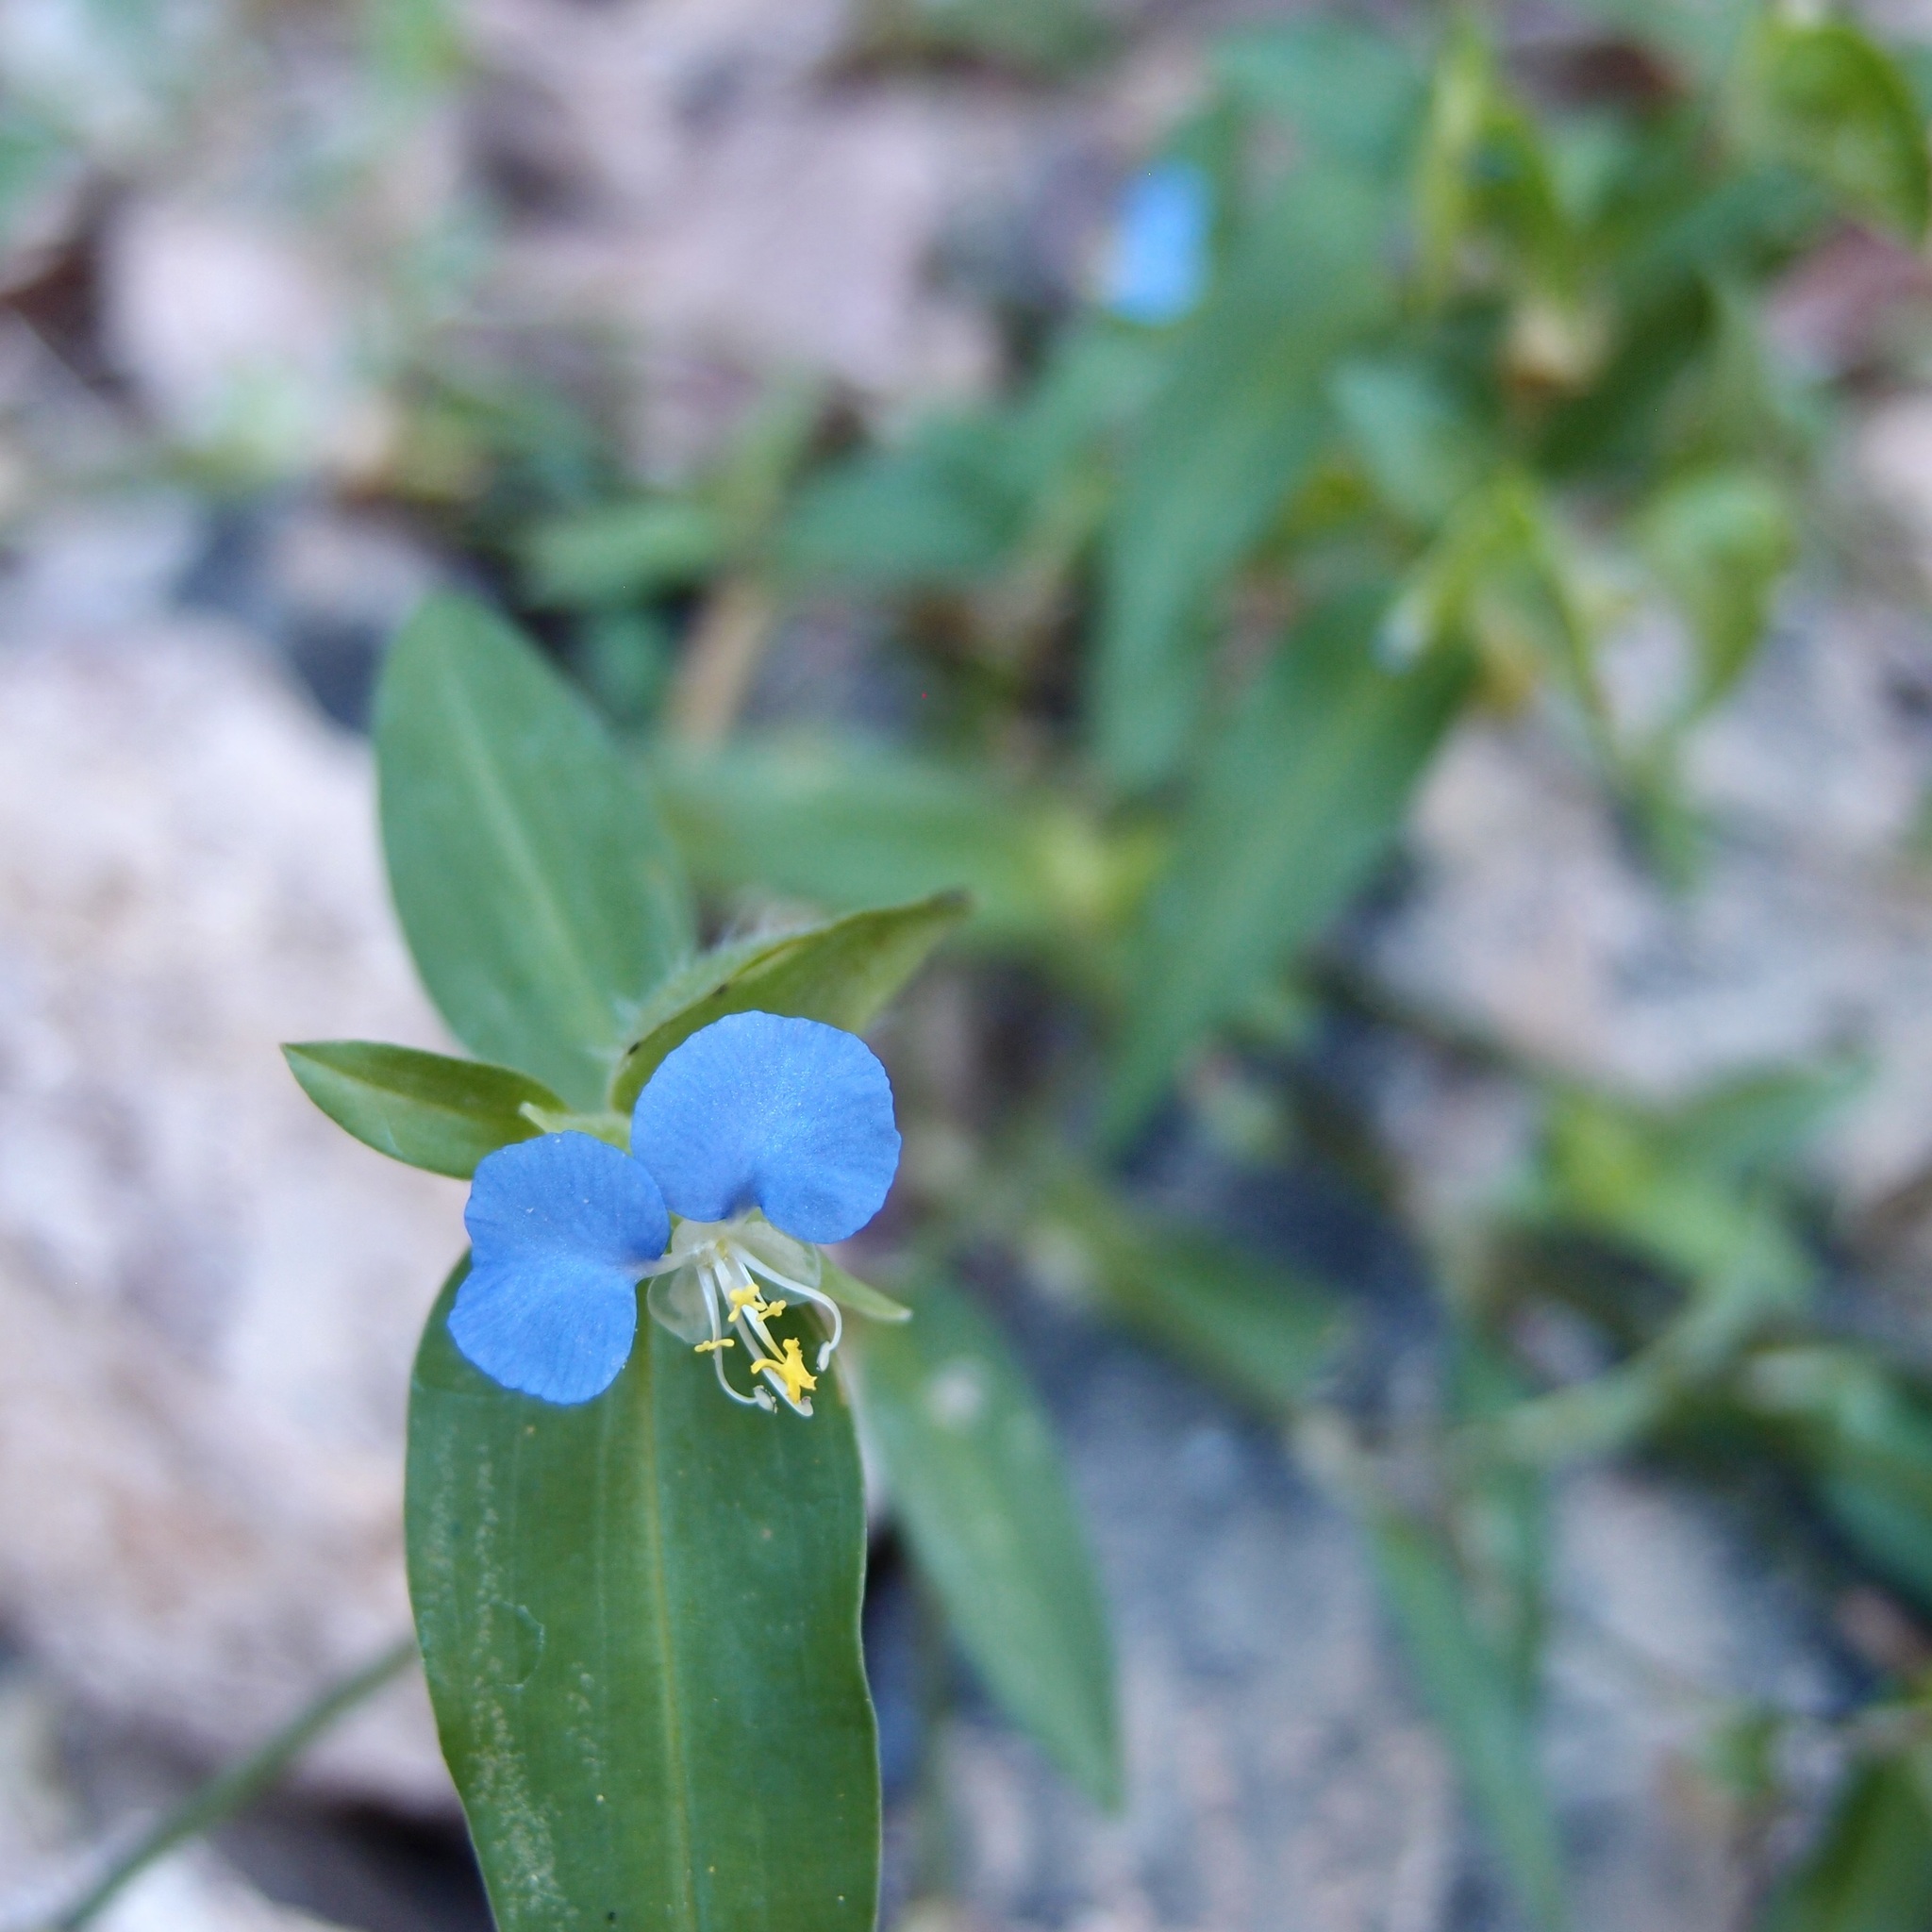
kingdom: Plantae
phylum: Tracheophyta
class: Liliopsida
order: Commelinales
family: Commelinaceae
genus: Commelina
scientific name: Commelina erecta
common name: Blousel blommetjie
